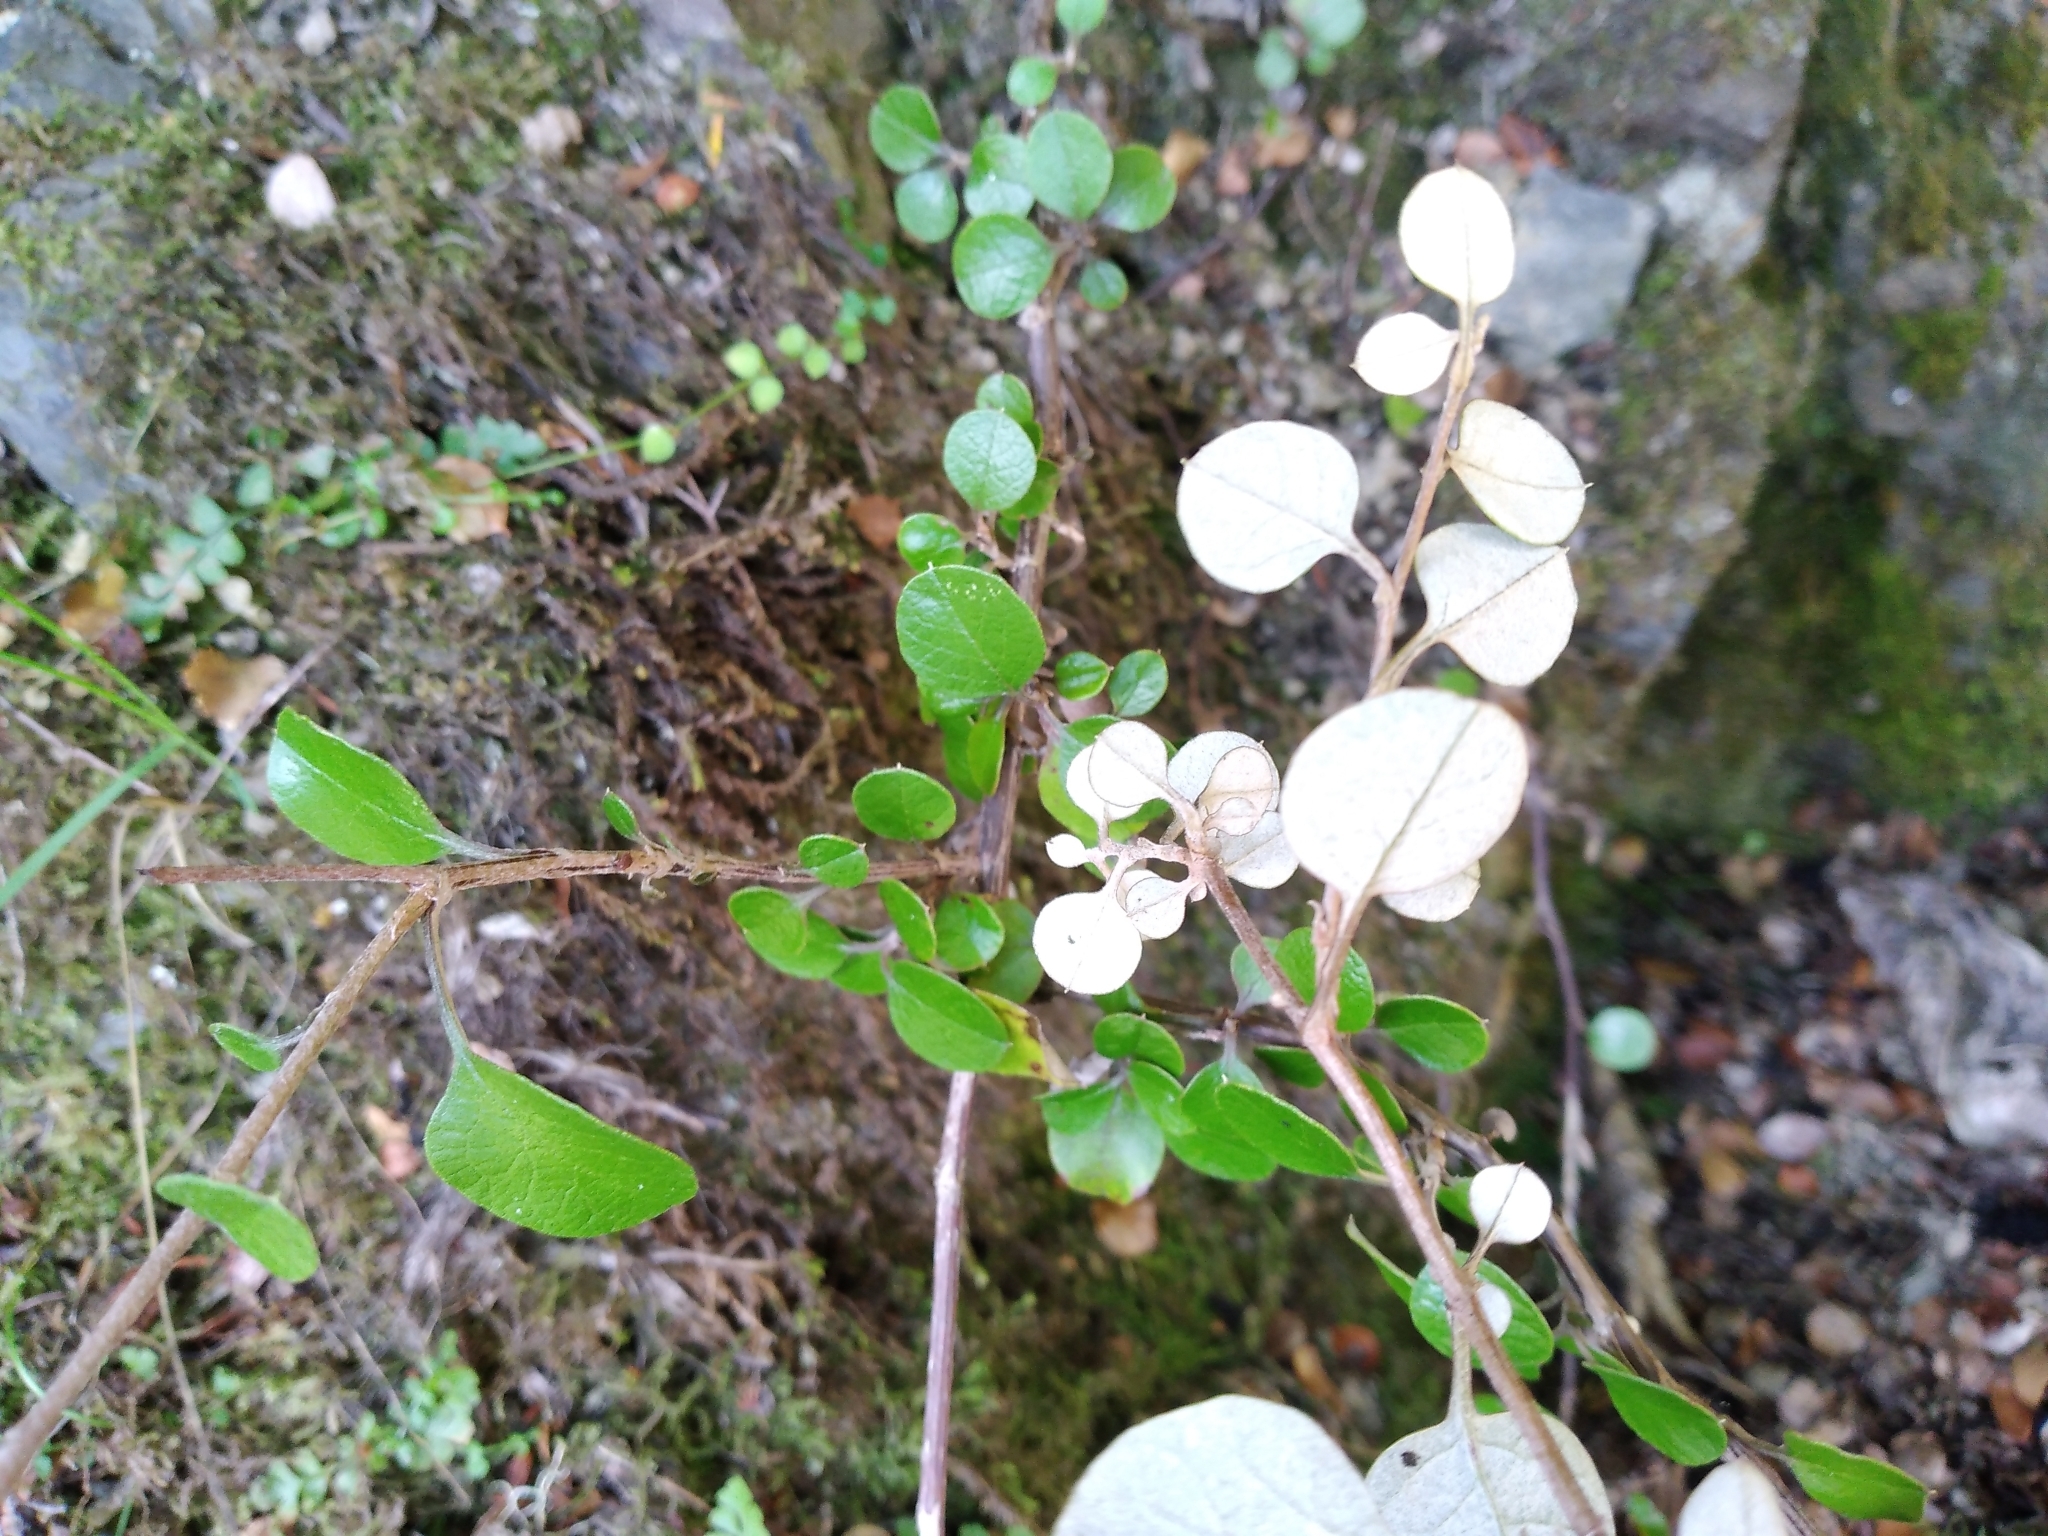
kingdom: Plantae
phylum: Tracheophyta
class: Magnoliopsida
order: Asterales
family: Asteraceae
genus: Ozothamnus
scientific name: Ozothamnus glomeratus
